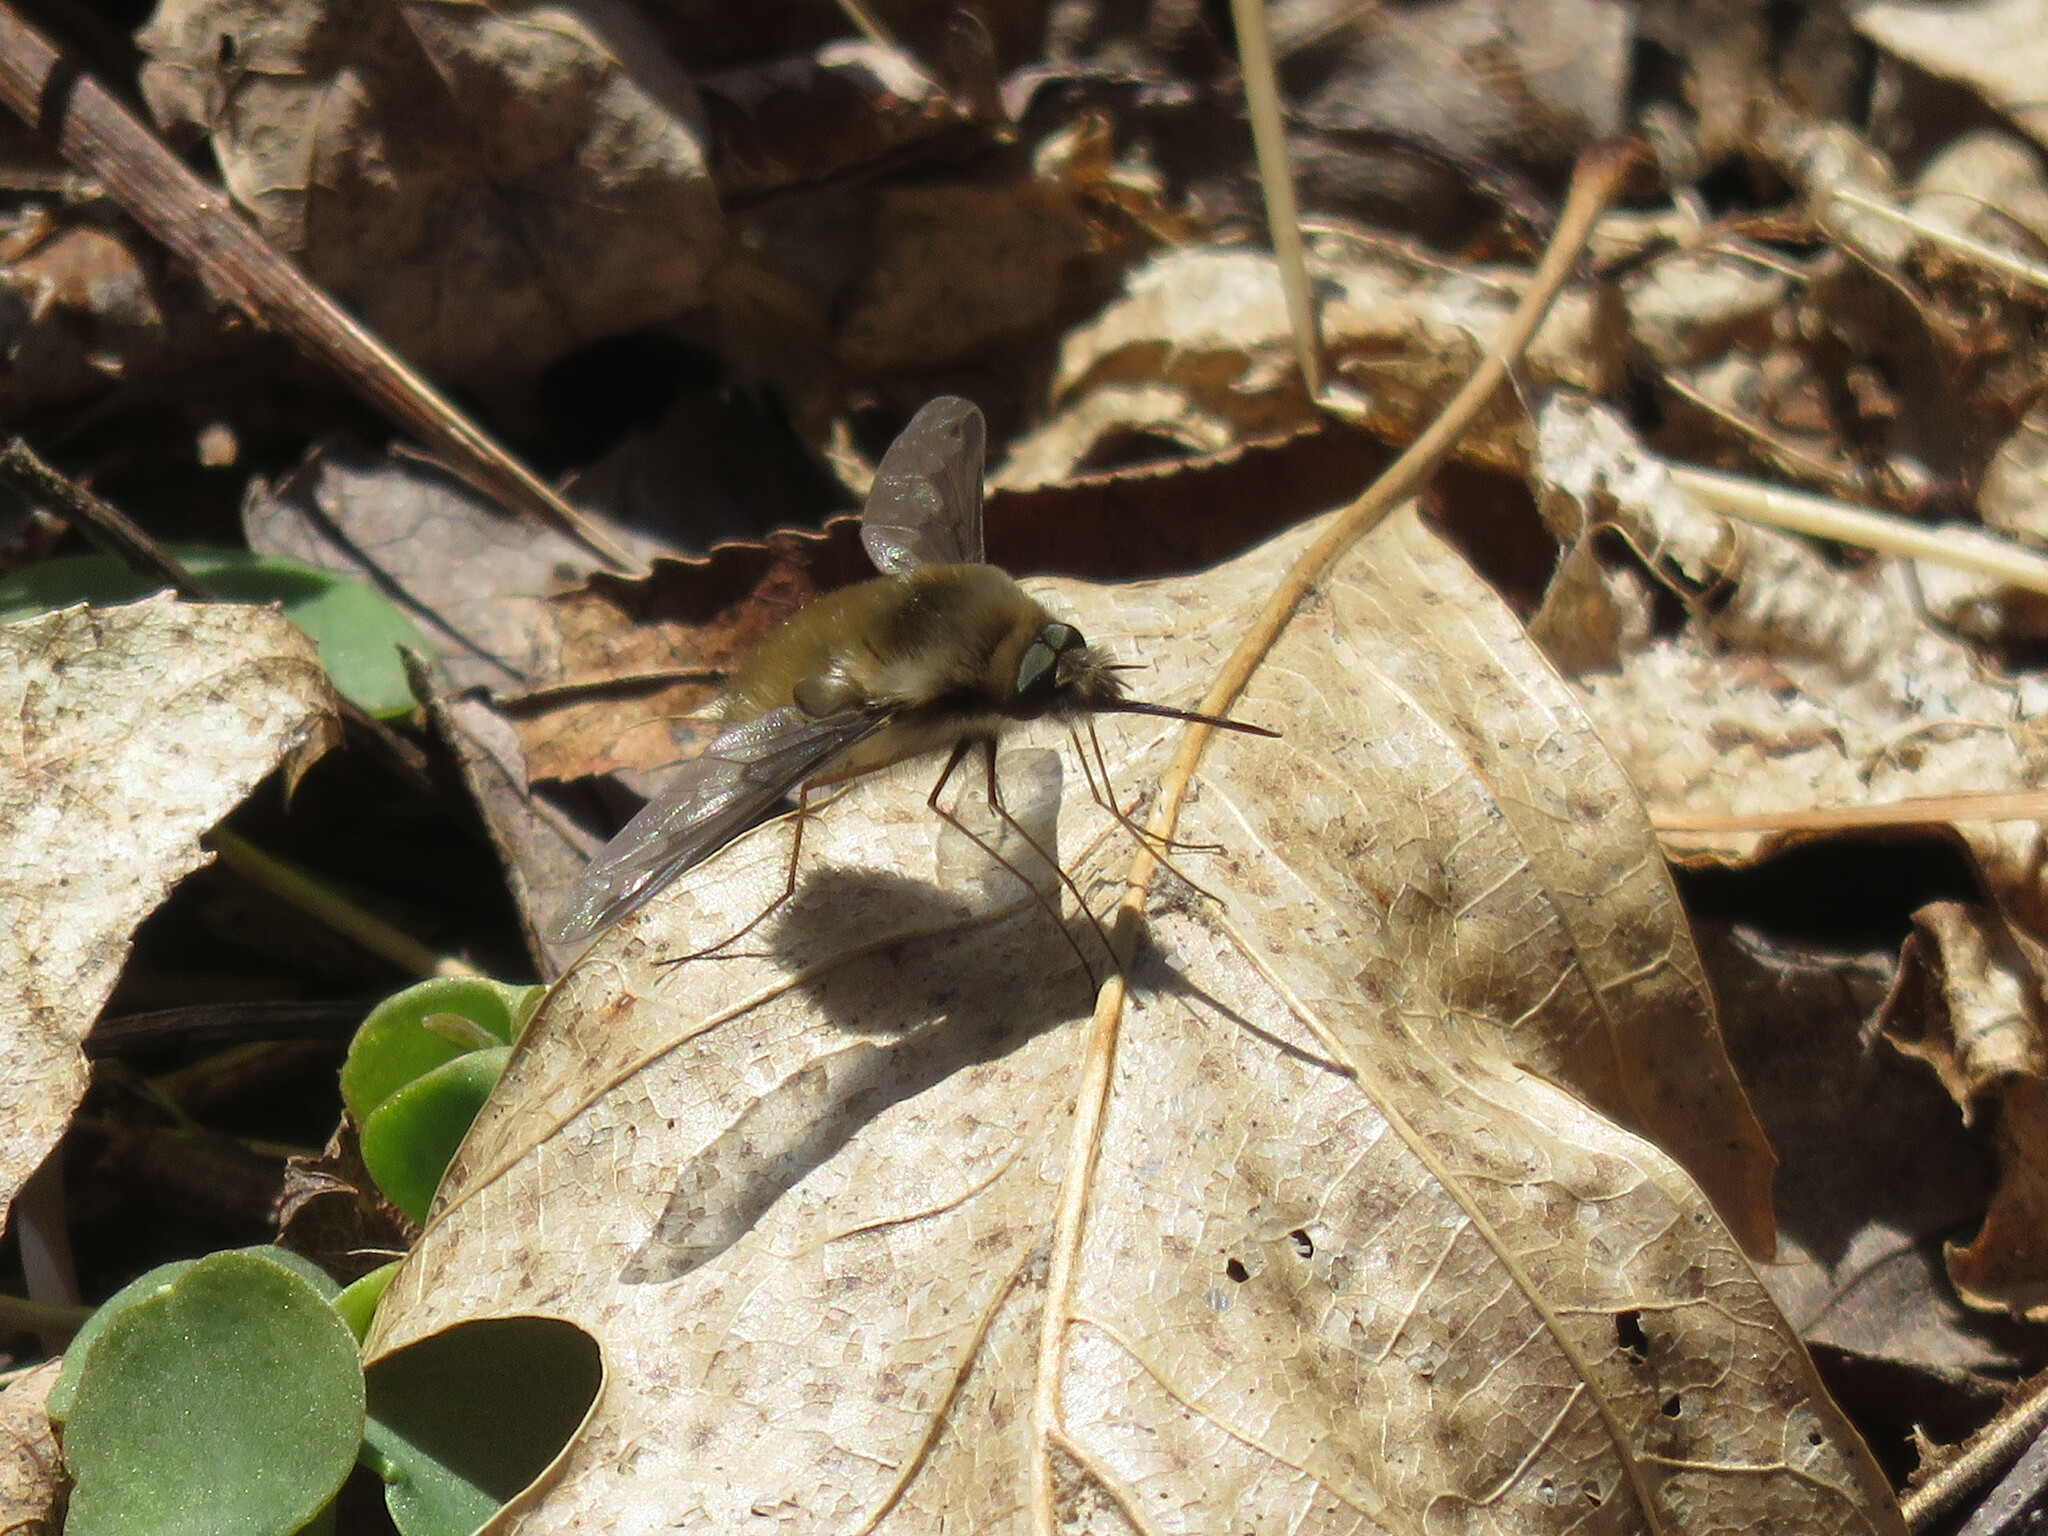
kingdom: Animalia
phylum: Arthropoda
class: Insecta
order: Diptera
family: Bombyliidae
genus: Bombylius
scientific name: Bombylius major
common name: Bee fly
